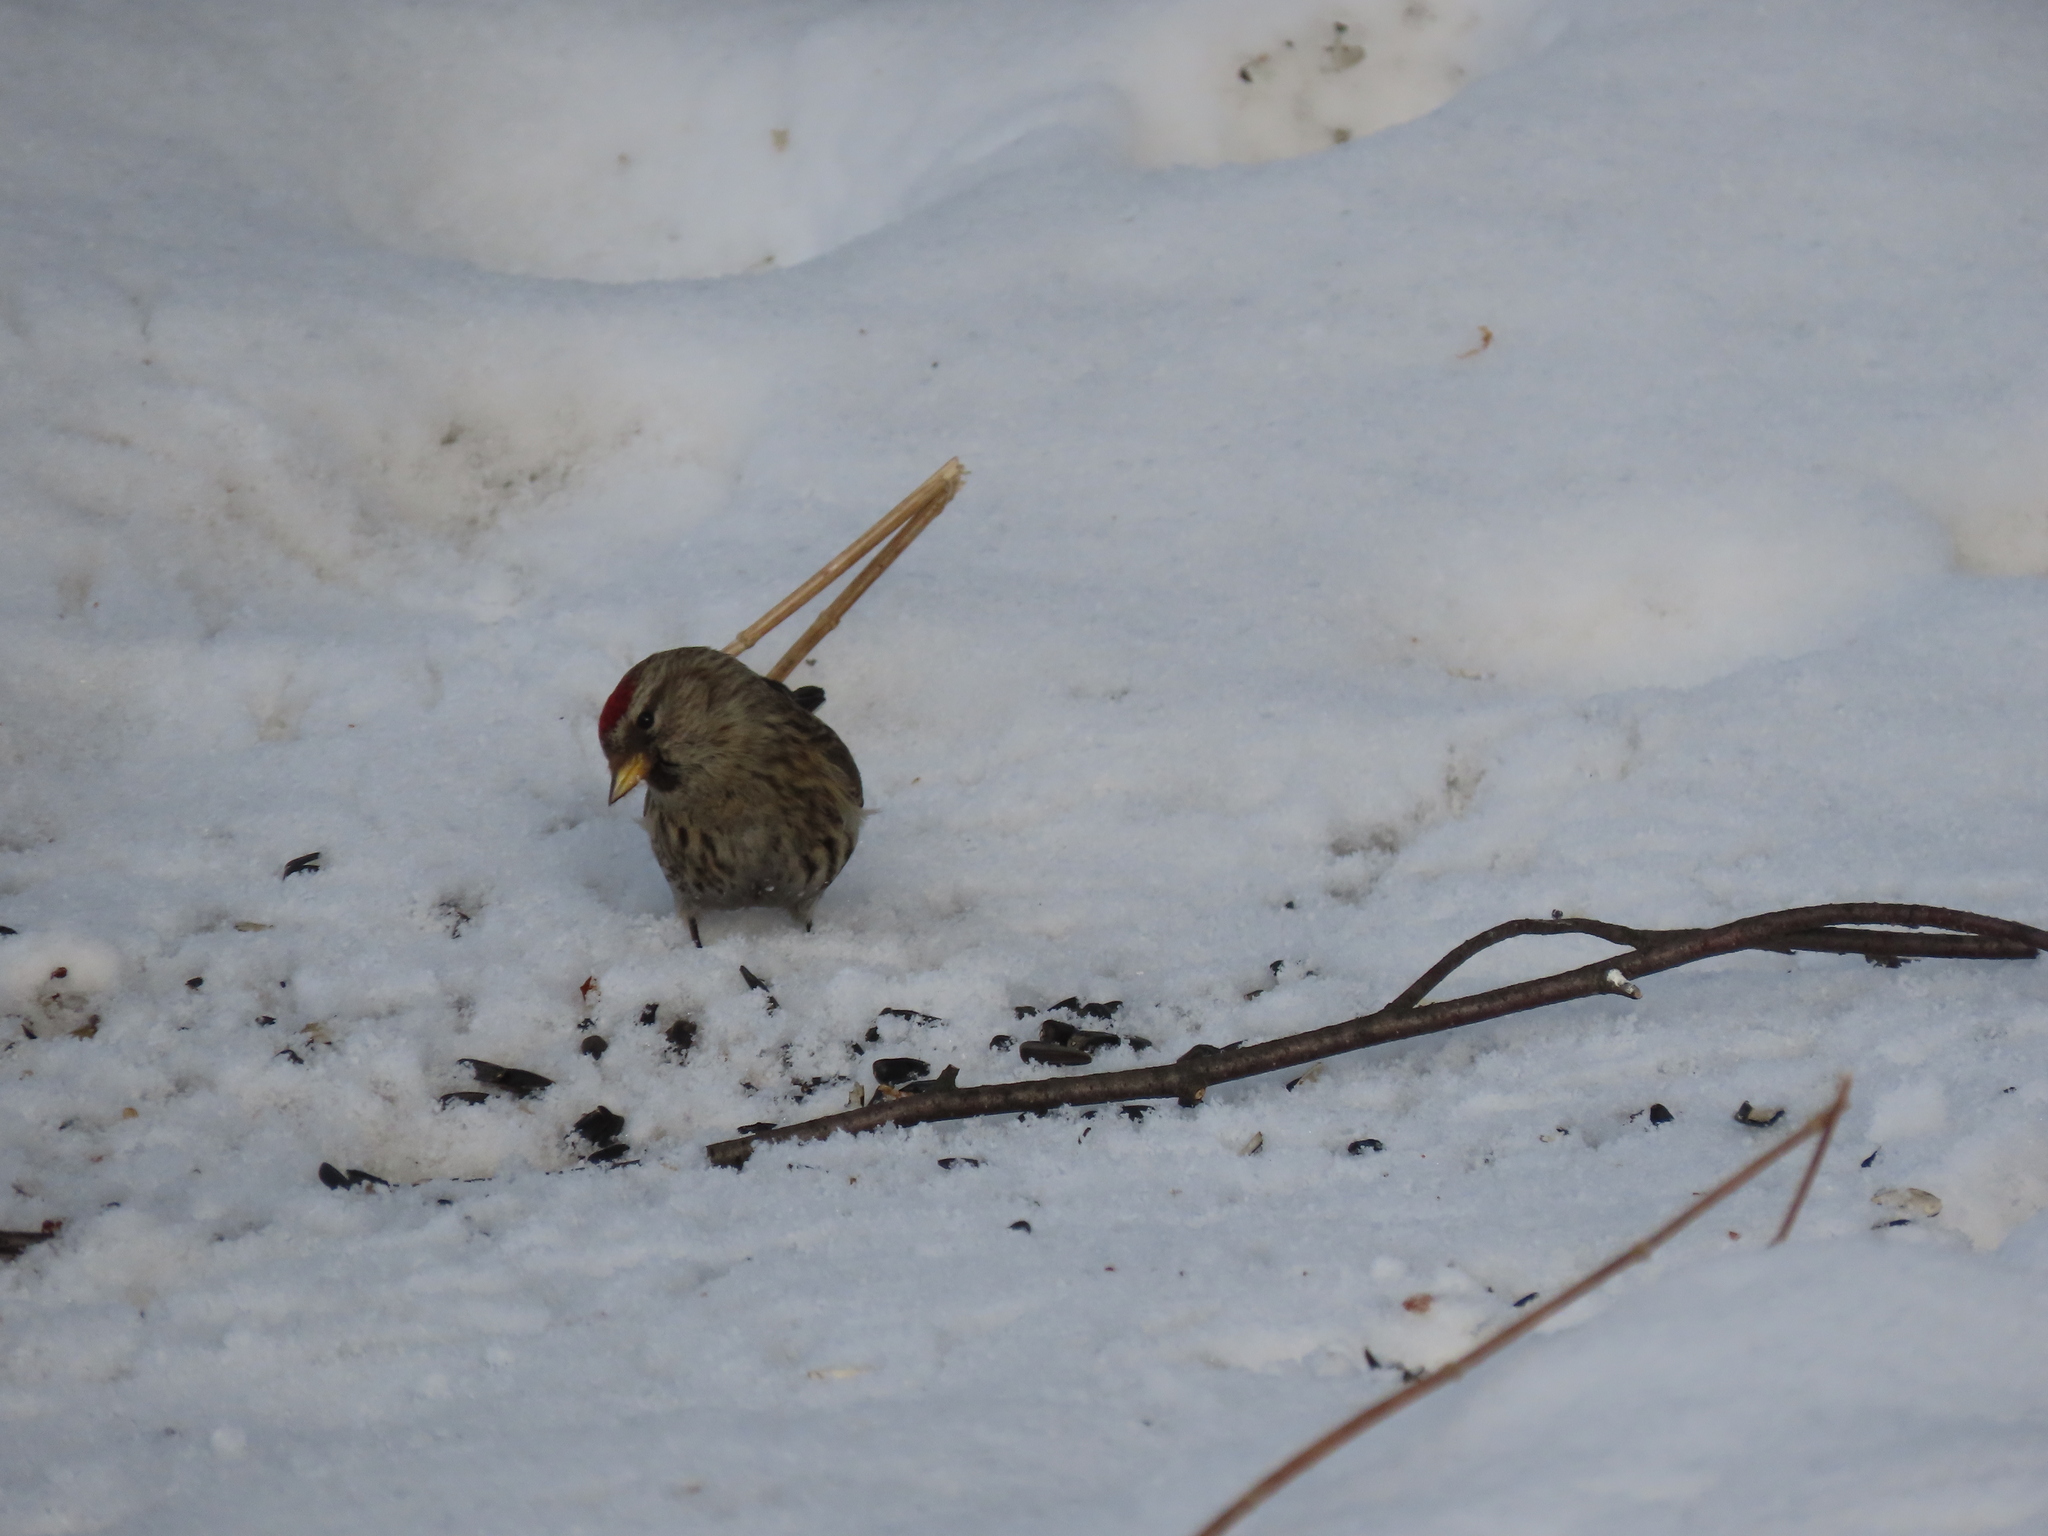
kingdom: Animalia
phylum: Chordata
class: Aves
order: Passeriformes
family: Fringillidae
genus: Acanthis
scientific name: Acanthis flammea
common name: Common redpoll
